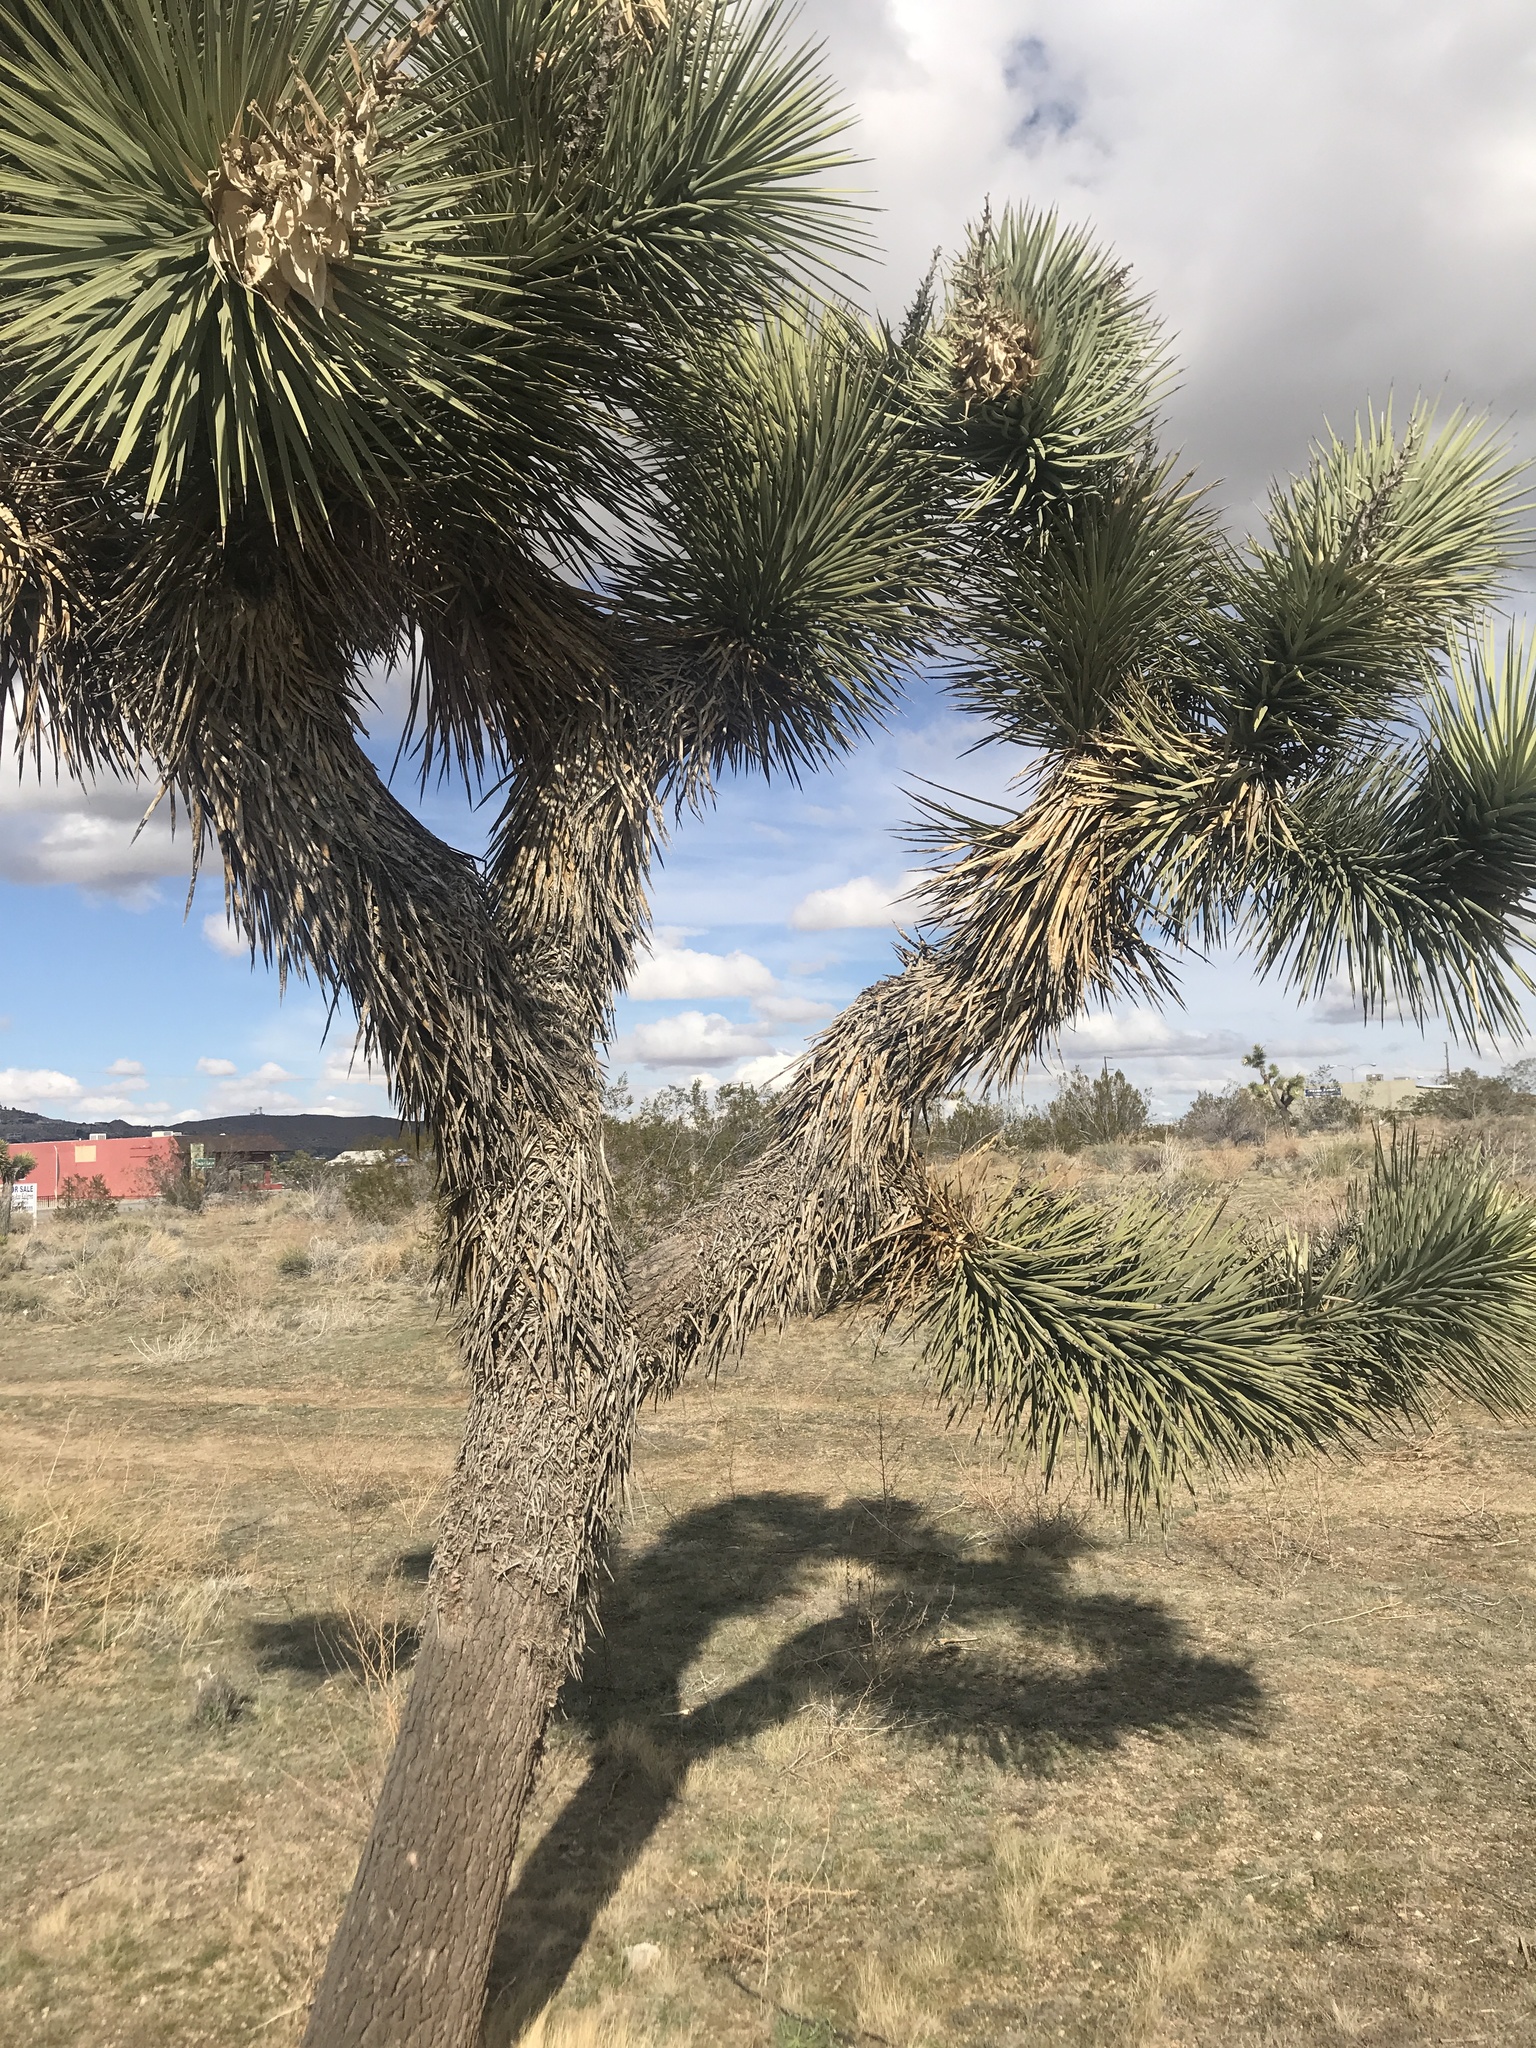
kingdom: Plantae
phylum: Tracheophyta
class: Liliopsida
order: Asparagales
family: Asparagaceae
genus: Yucca
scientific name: Yucca brevifolia
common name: Joshua tree
